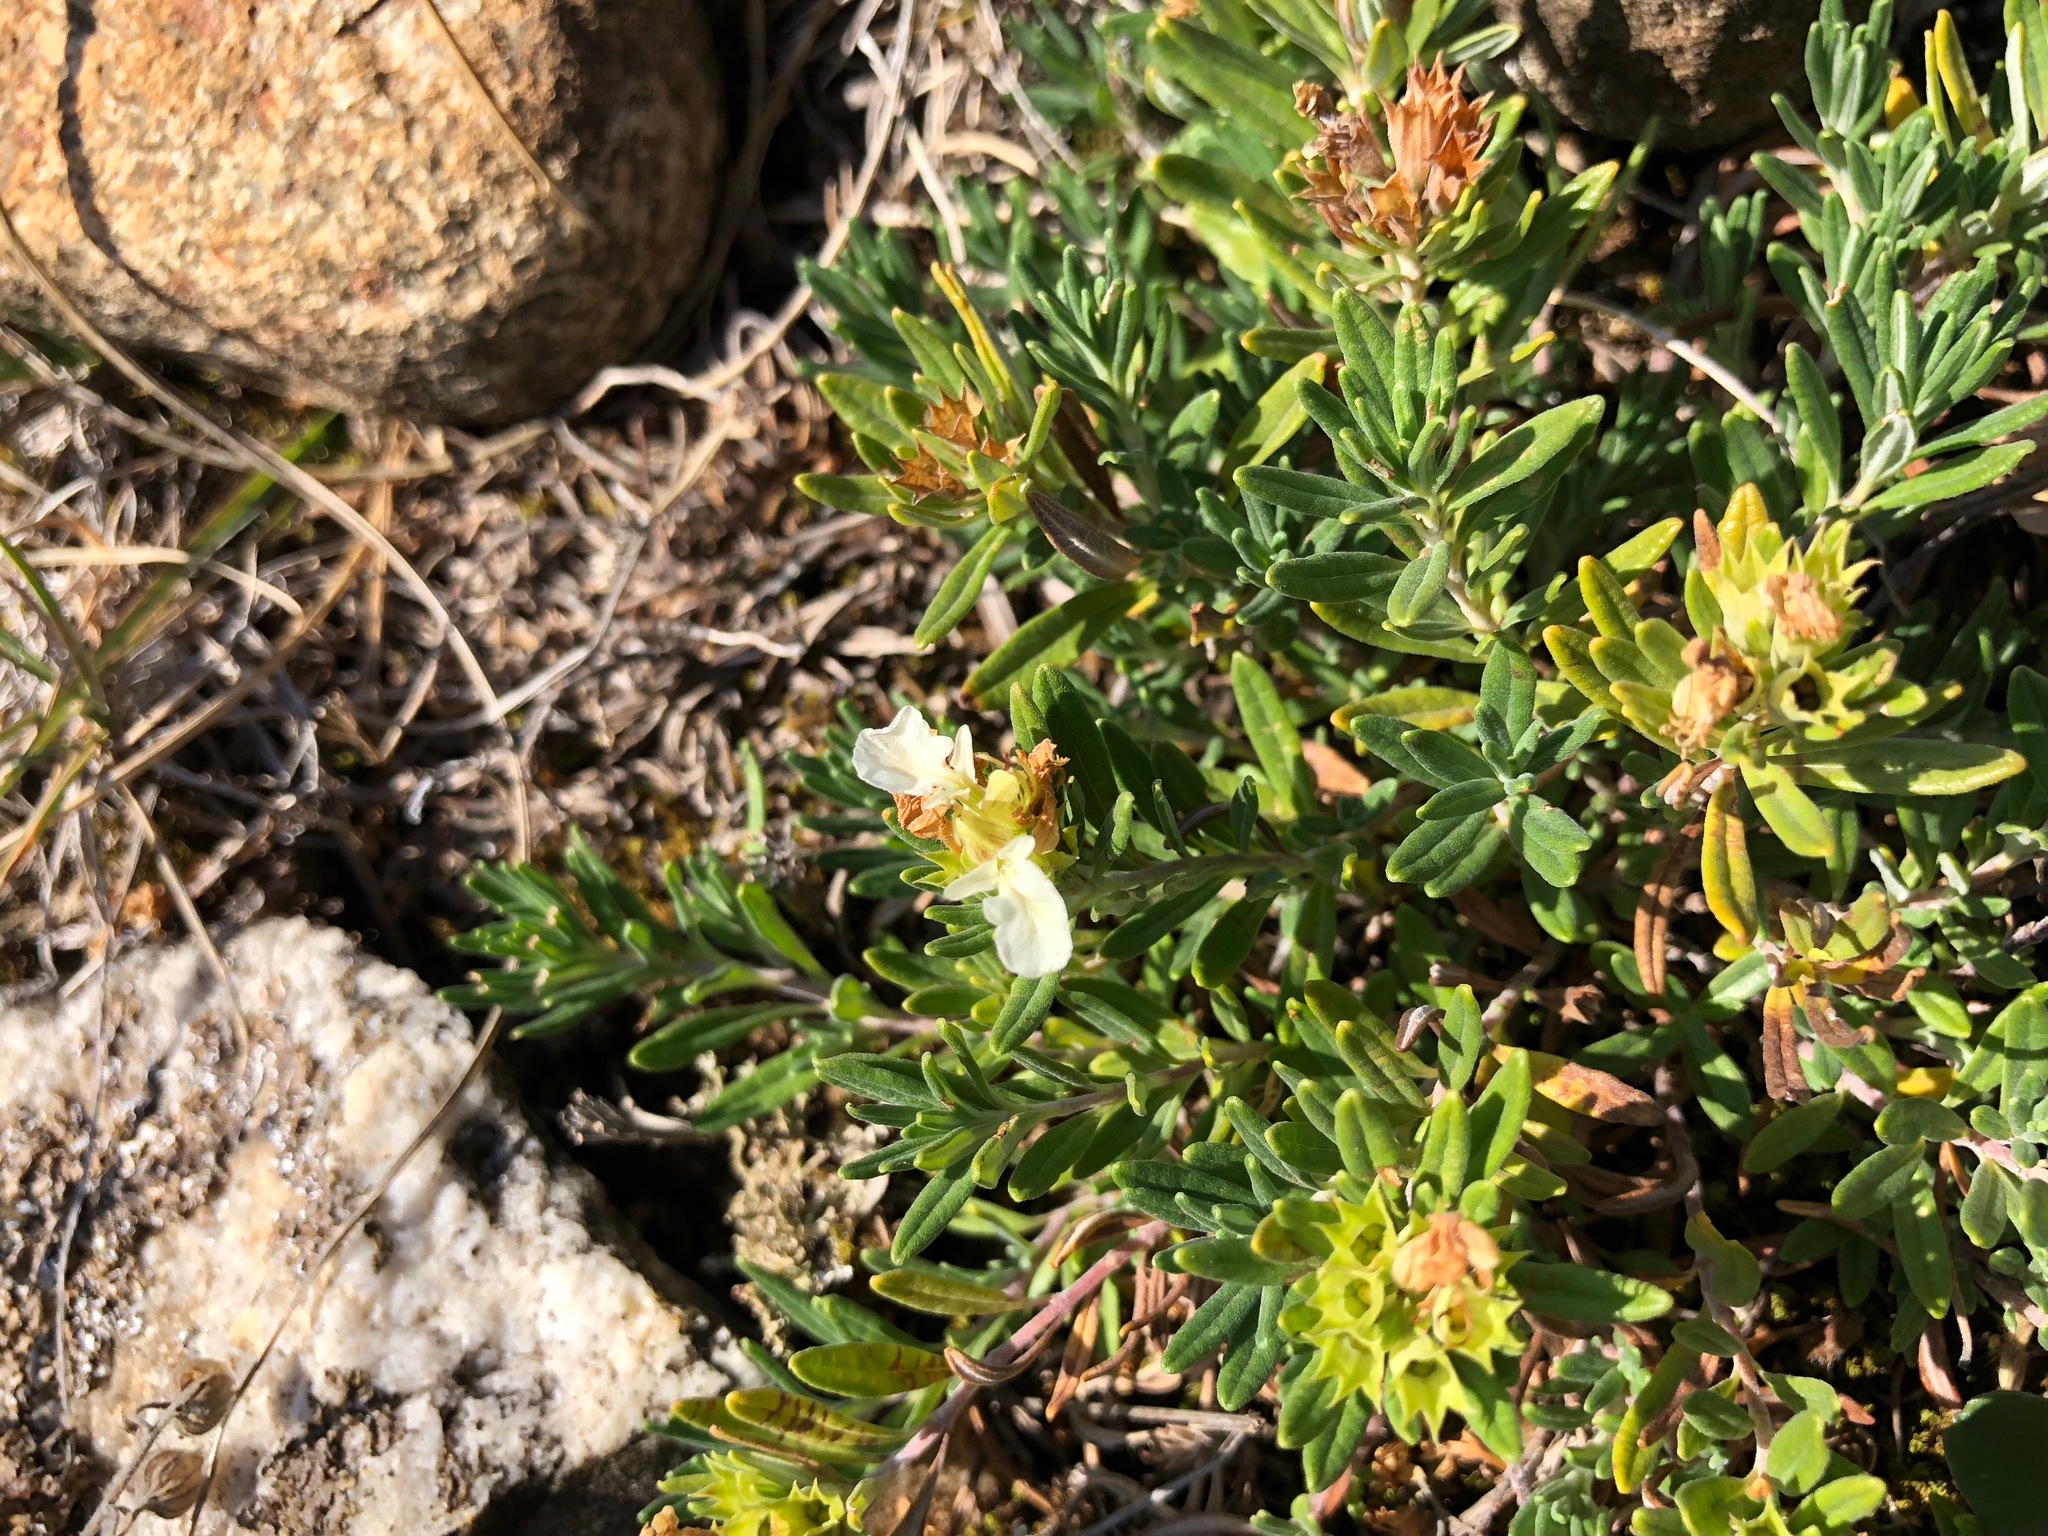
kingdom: Plantae
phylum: Tracheophyta
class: Magnoliopsida
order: Lamiales
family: Lamiaceae
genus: Teucrium
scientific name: Teucrium montanum
